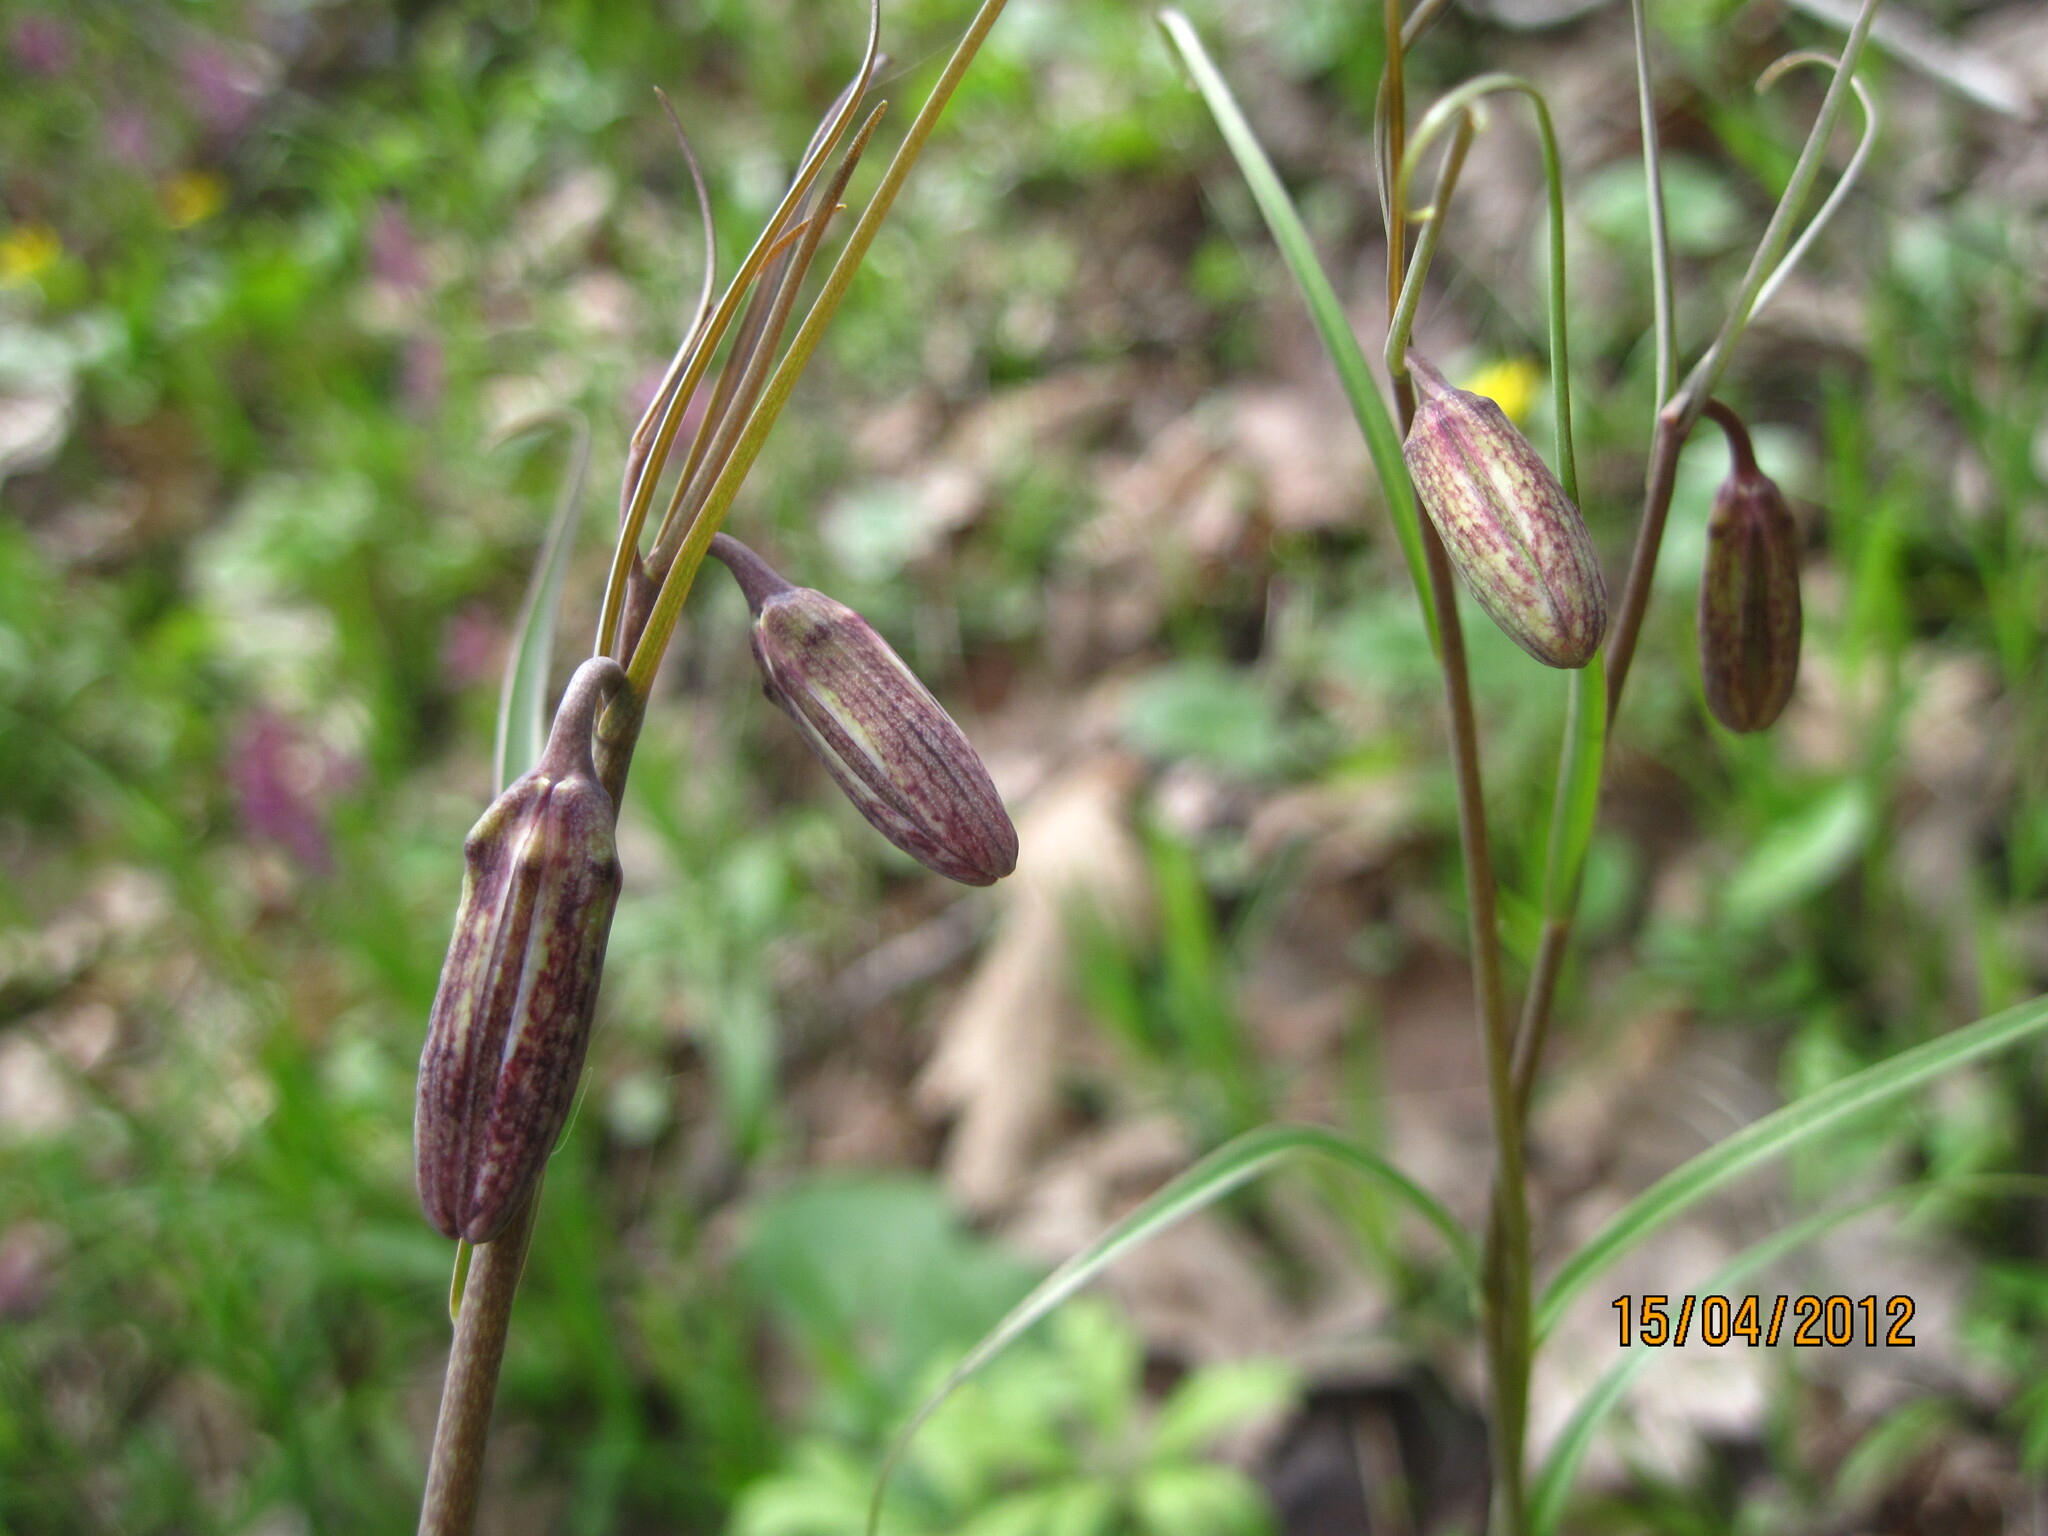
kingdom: Plantae
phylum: Tracheophyta
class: Liliopsida
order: Liliales
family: Liliaceae
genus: Fritillaria
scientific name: Fritillaria ruthenica
